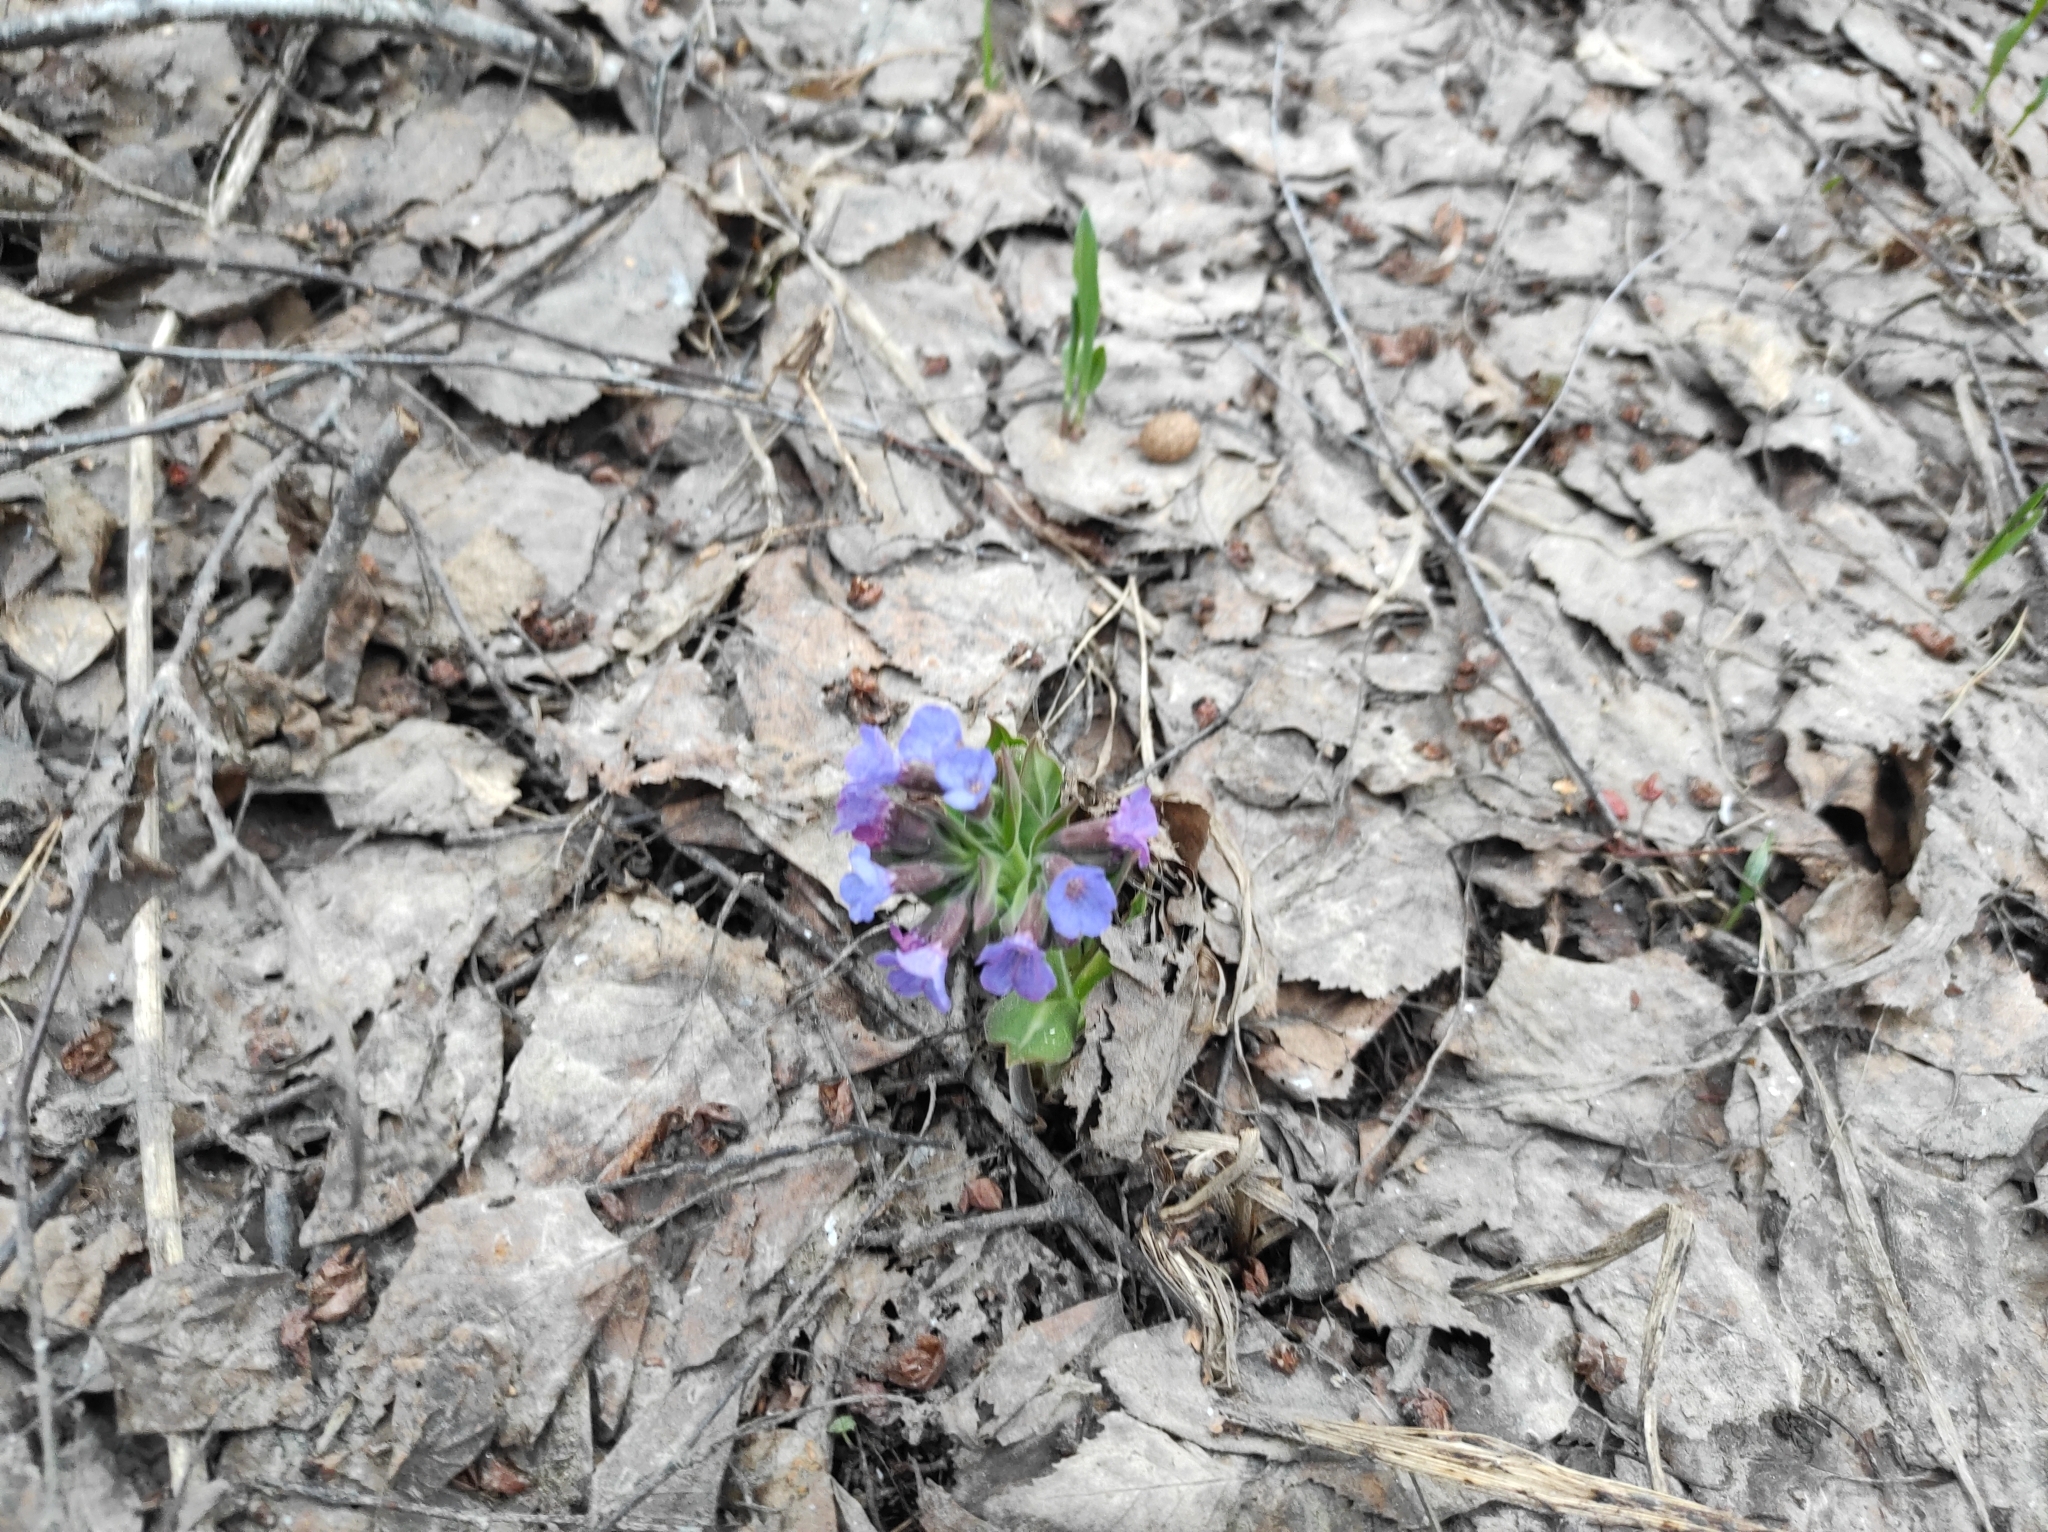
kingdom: Plantae
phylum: Tracheophyta
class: Magnoliopsida
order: Boraginales
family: Boraginaceae
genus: Pulmonaria
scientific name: Pulmonaria mollis
